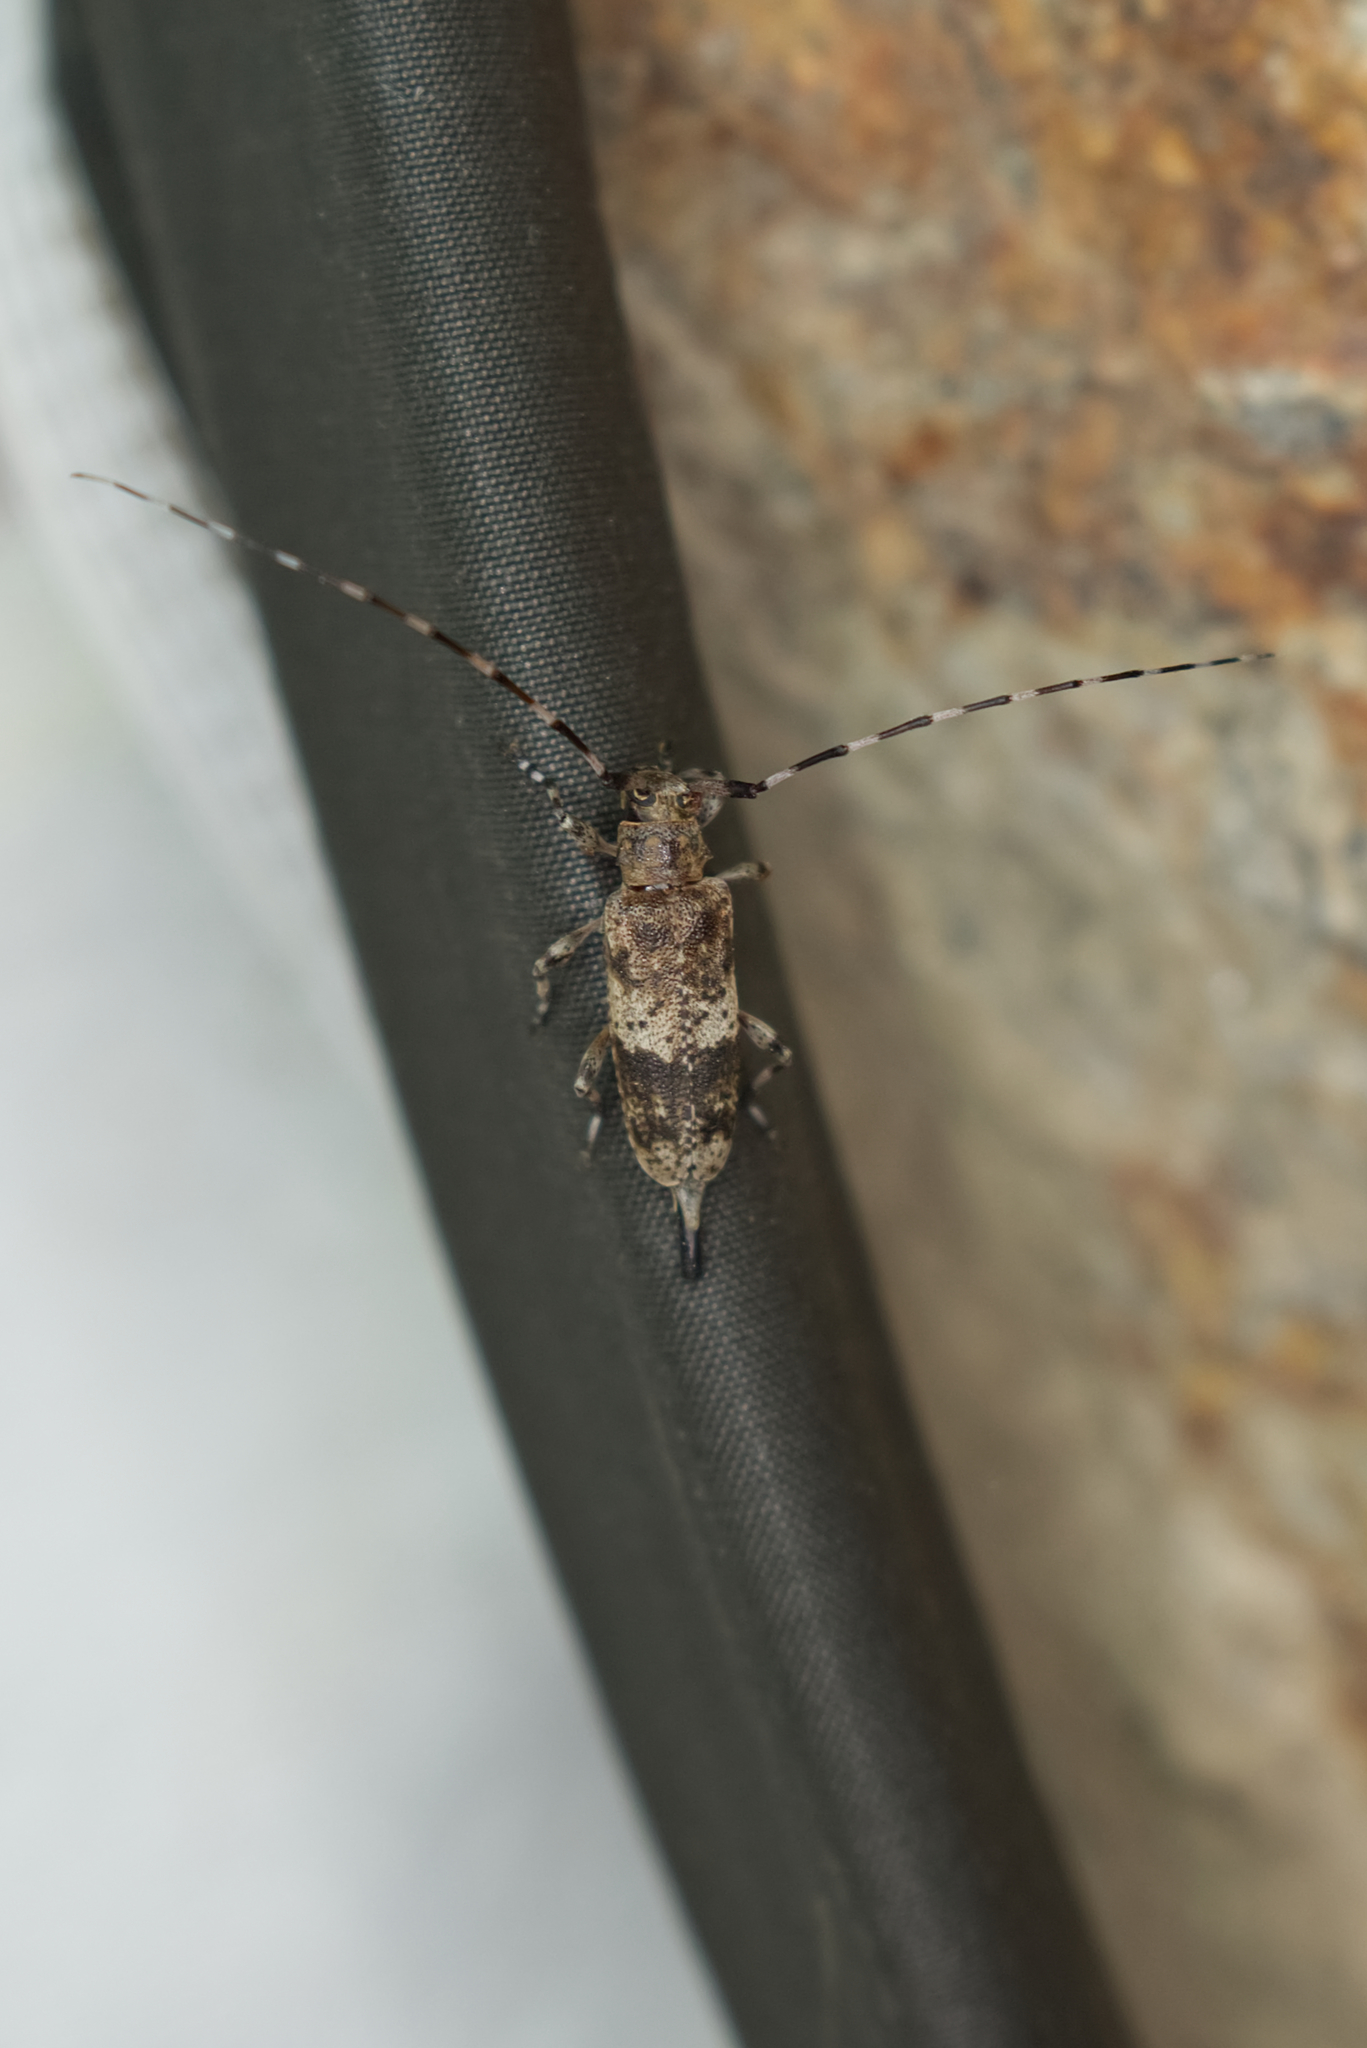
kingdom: Animalia
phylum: Arthropoda
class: Insecta
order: Coleoptera
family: Cerambycidae
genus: Acanthocinus
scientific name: Acanthocinus griseus
